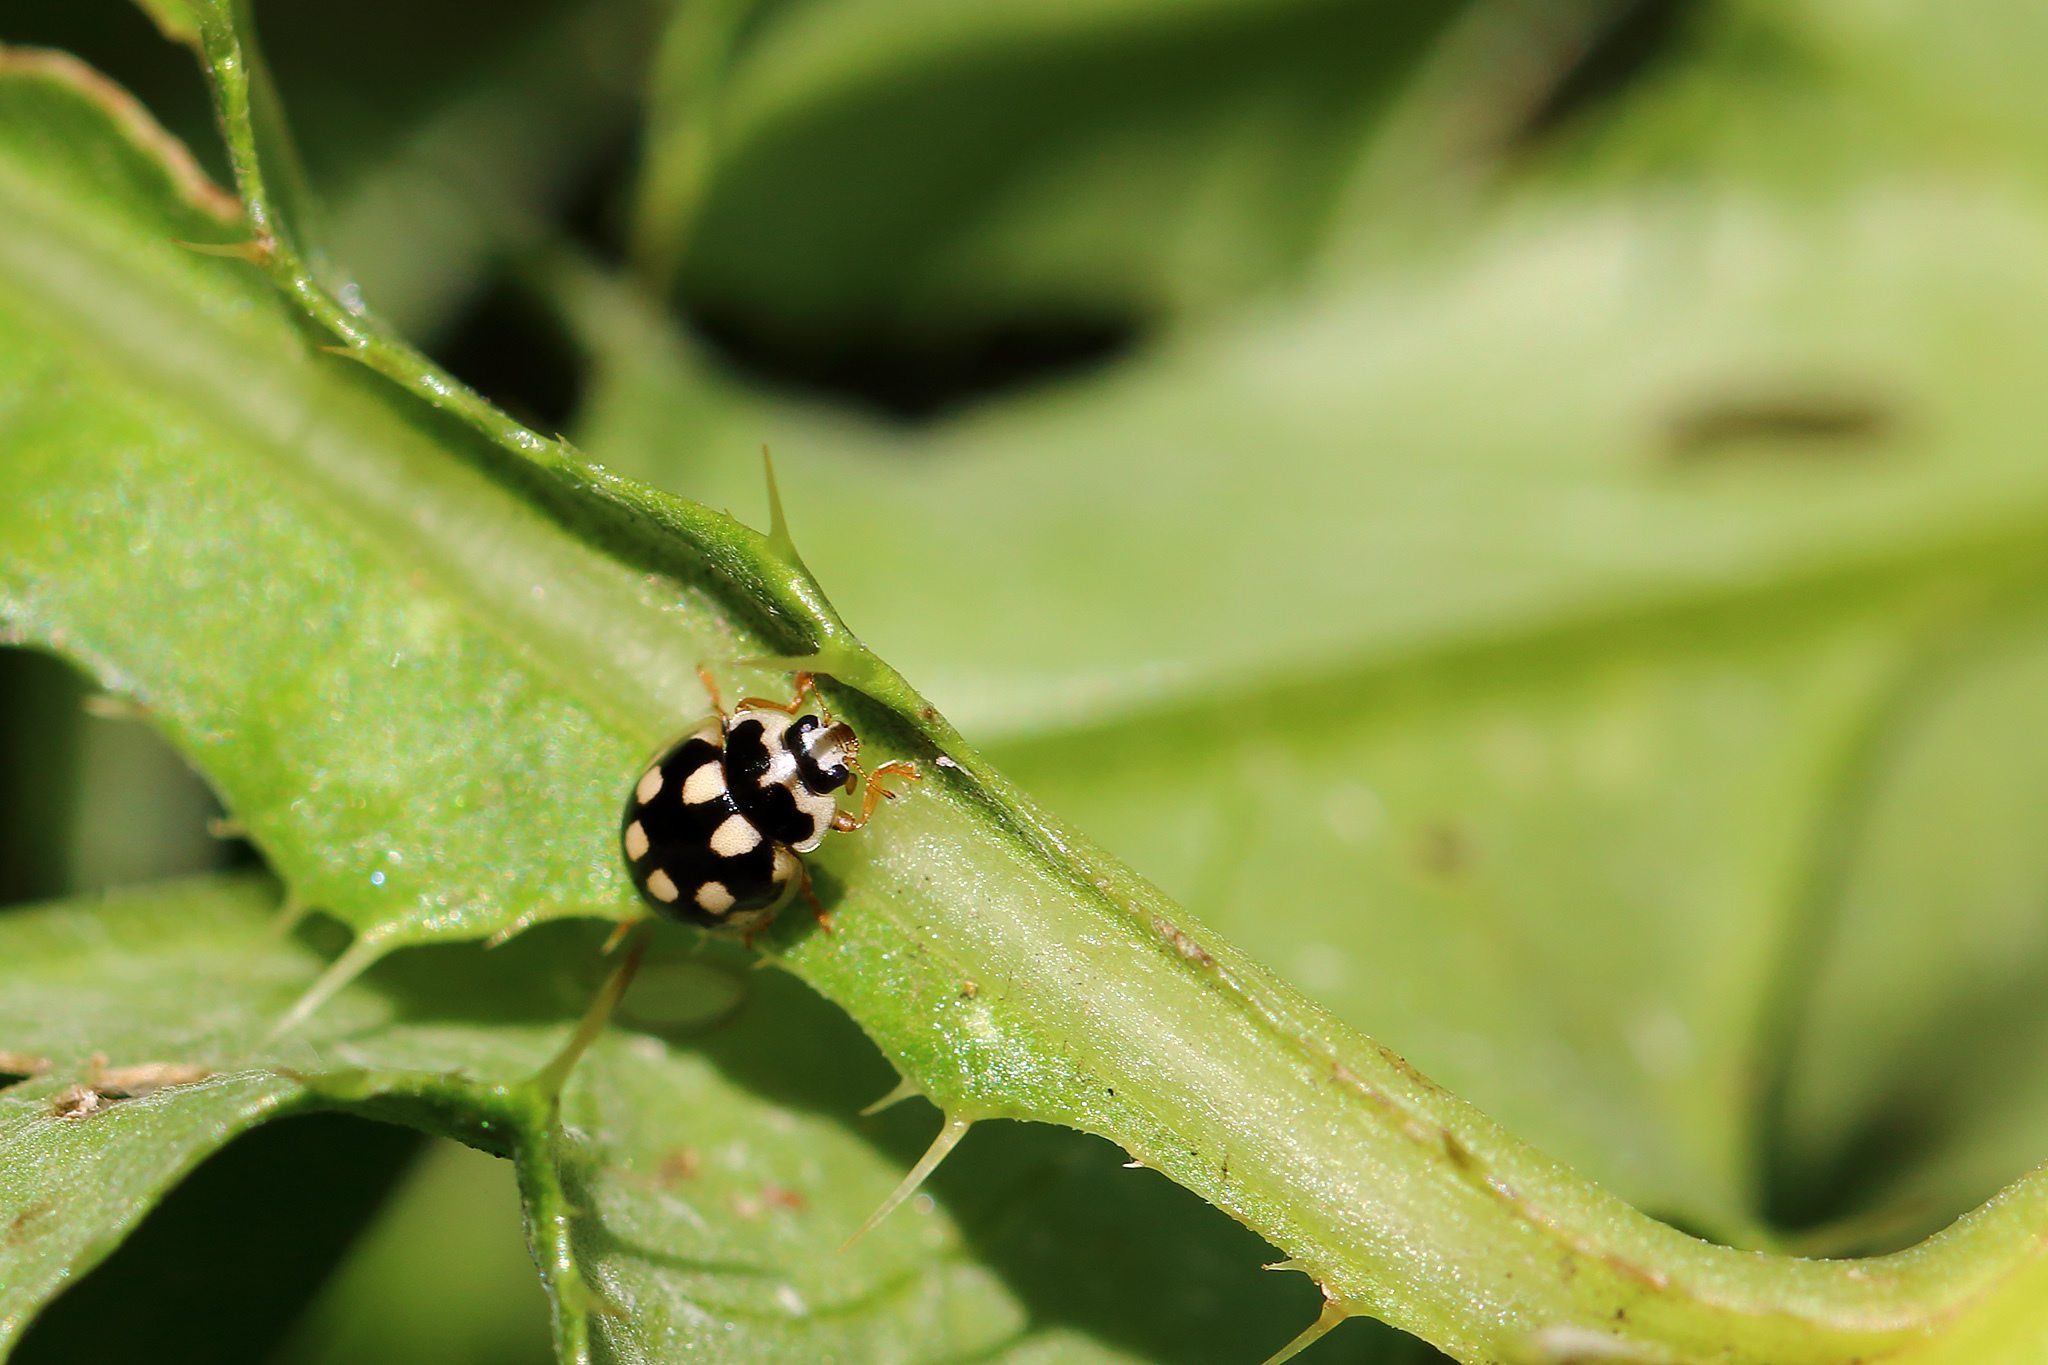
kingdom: Animalia
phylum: Arthropoda
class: Insecta
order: Coleoptera
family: Coccinellidae
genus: Propylaea
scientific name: Propylaea quatuordecimpunctata
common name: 14-spotted ladybird beetle
